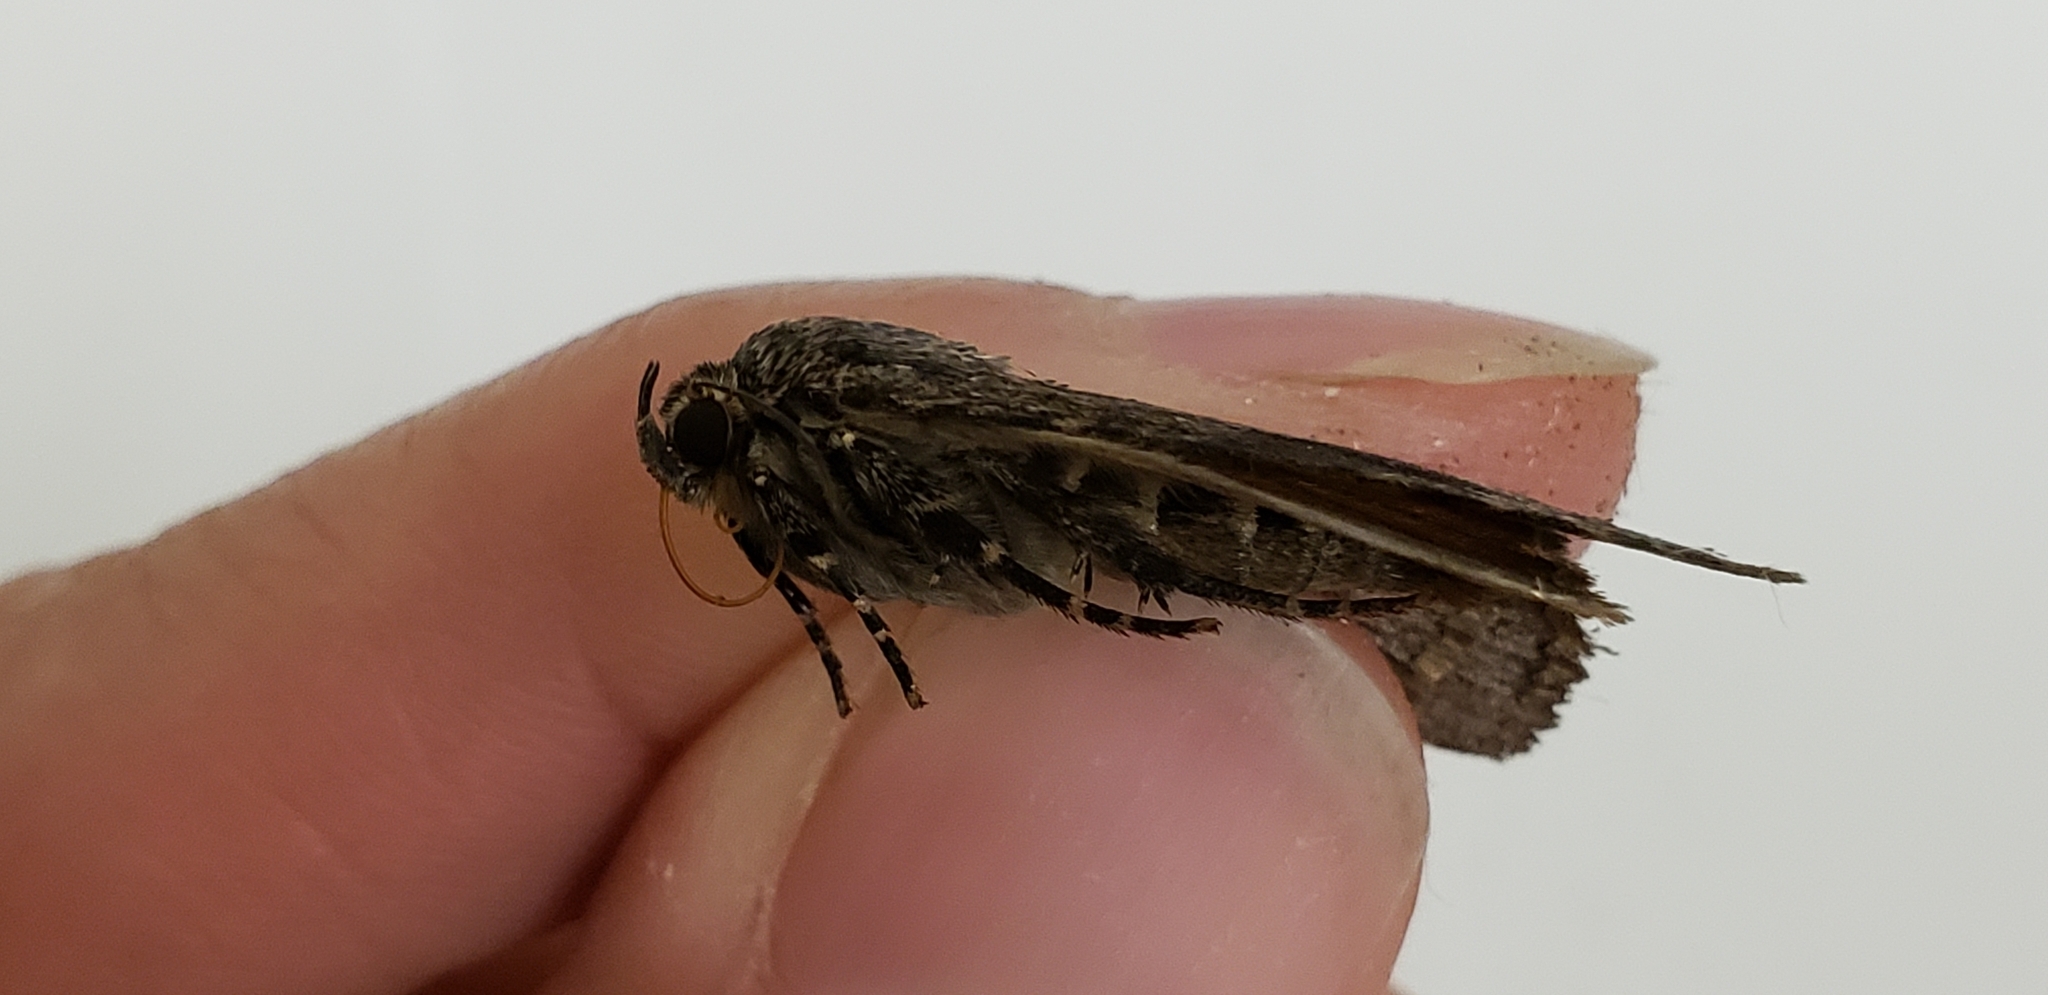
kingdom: Animalia
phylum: Arthropoda
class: Insecta
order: Lepidoptera
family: Noctuidae
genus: Amphipyra
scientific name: Amphipyra pyramidoides
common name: American copper underwing
